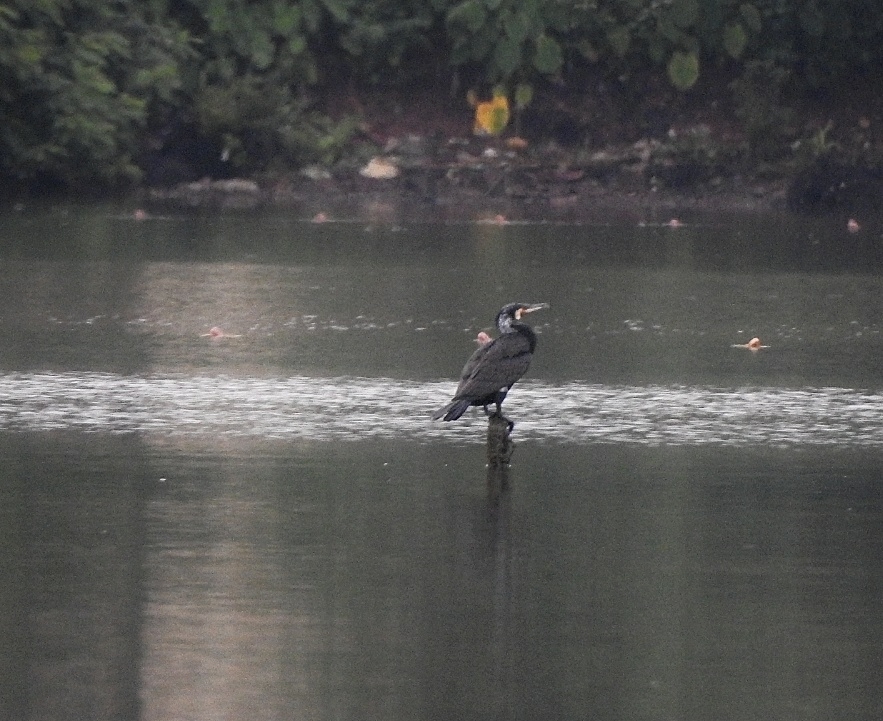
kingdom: Animalia
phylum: Chordata
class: Aves
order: Suliformes
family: Phalacrocoracidae
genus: Phalacrocorax
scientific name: Phalacrocorax carbo
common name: Great cormorant
